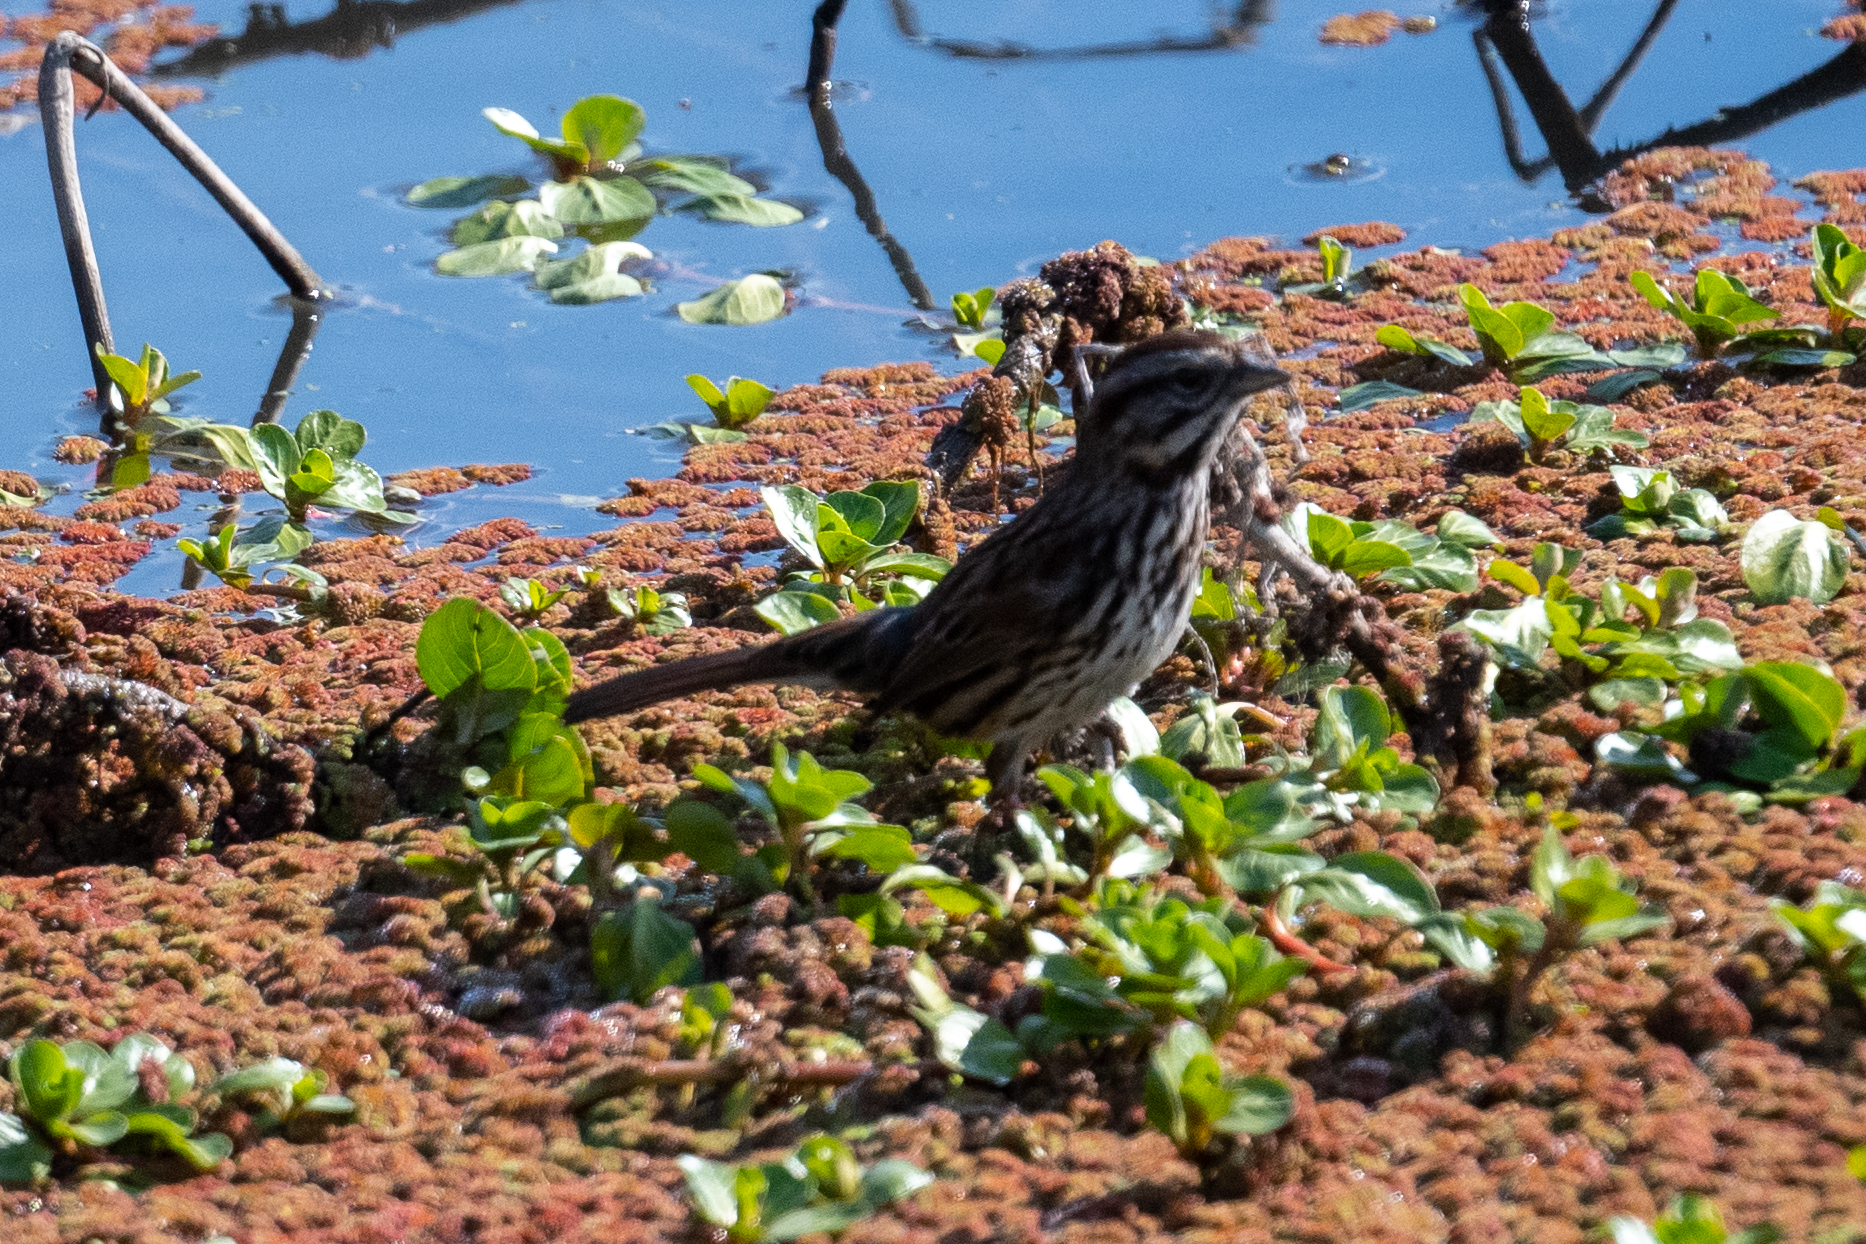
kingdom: Animalia
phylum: Chordata
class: Aves
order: Passeriformes
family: Passerellidae
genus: Melospiza
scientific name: Melospiza melodia
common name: Song sparrow
